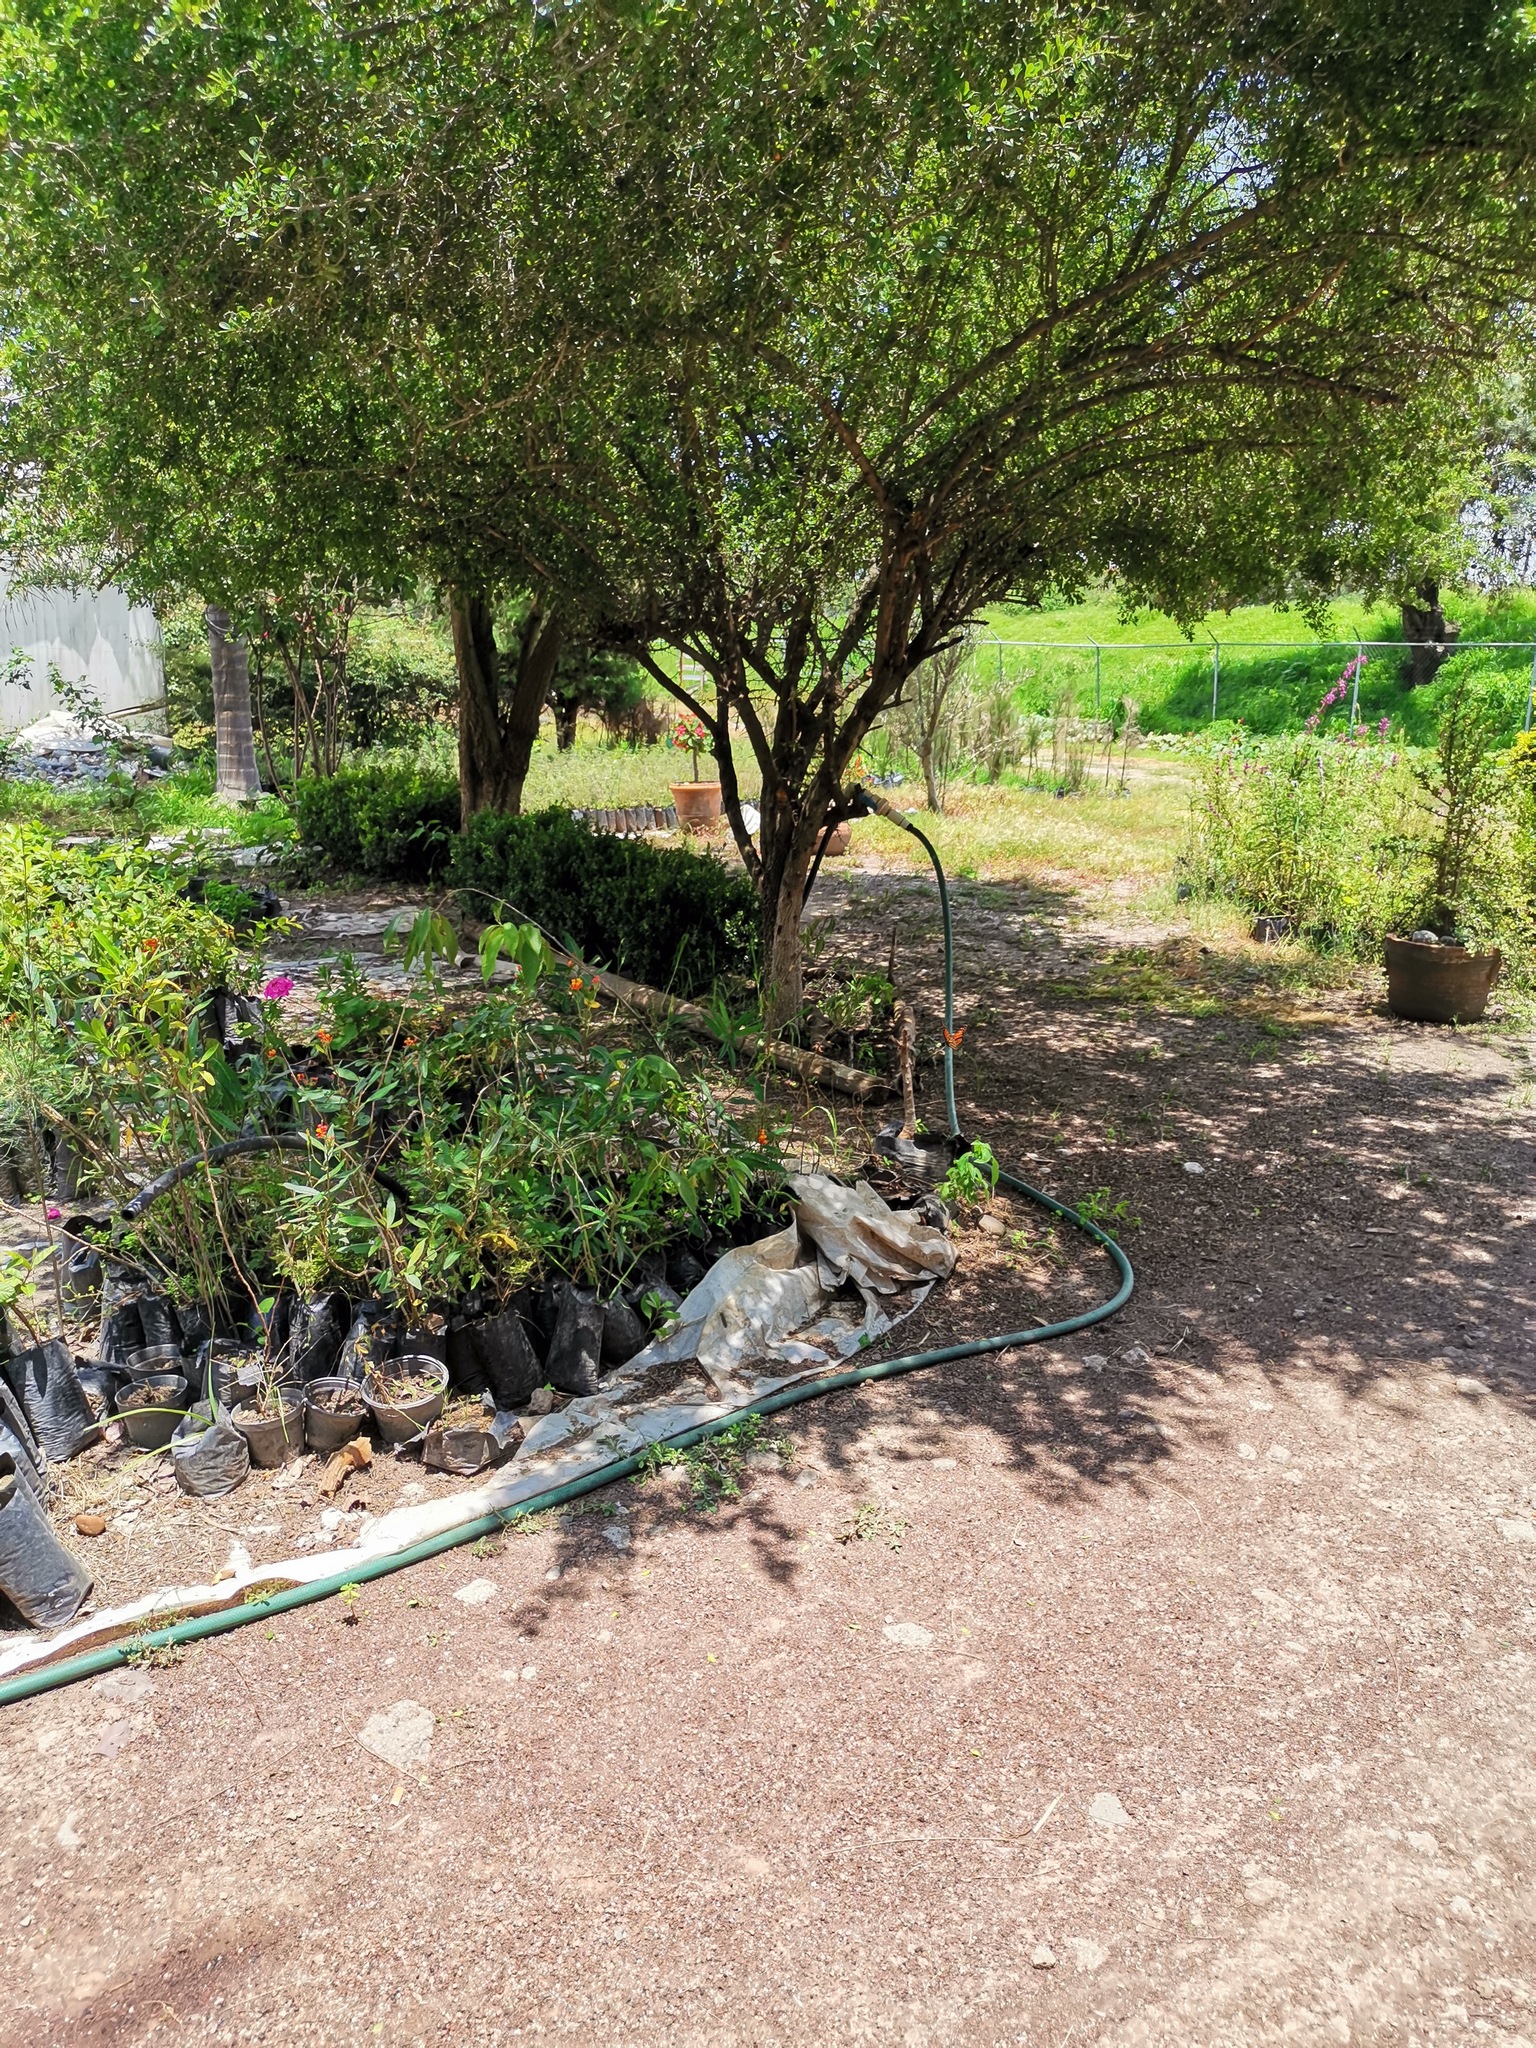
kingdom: Animalia
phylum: Arthropoda
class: Insecta
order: Lepidoptera
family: Nymphalidae
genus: Danaus
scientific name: Danaus plexippus
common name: Monarch
